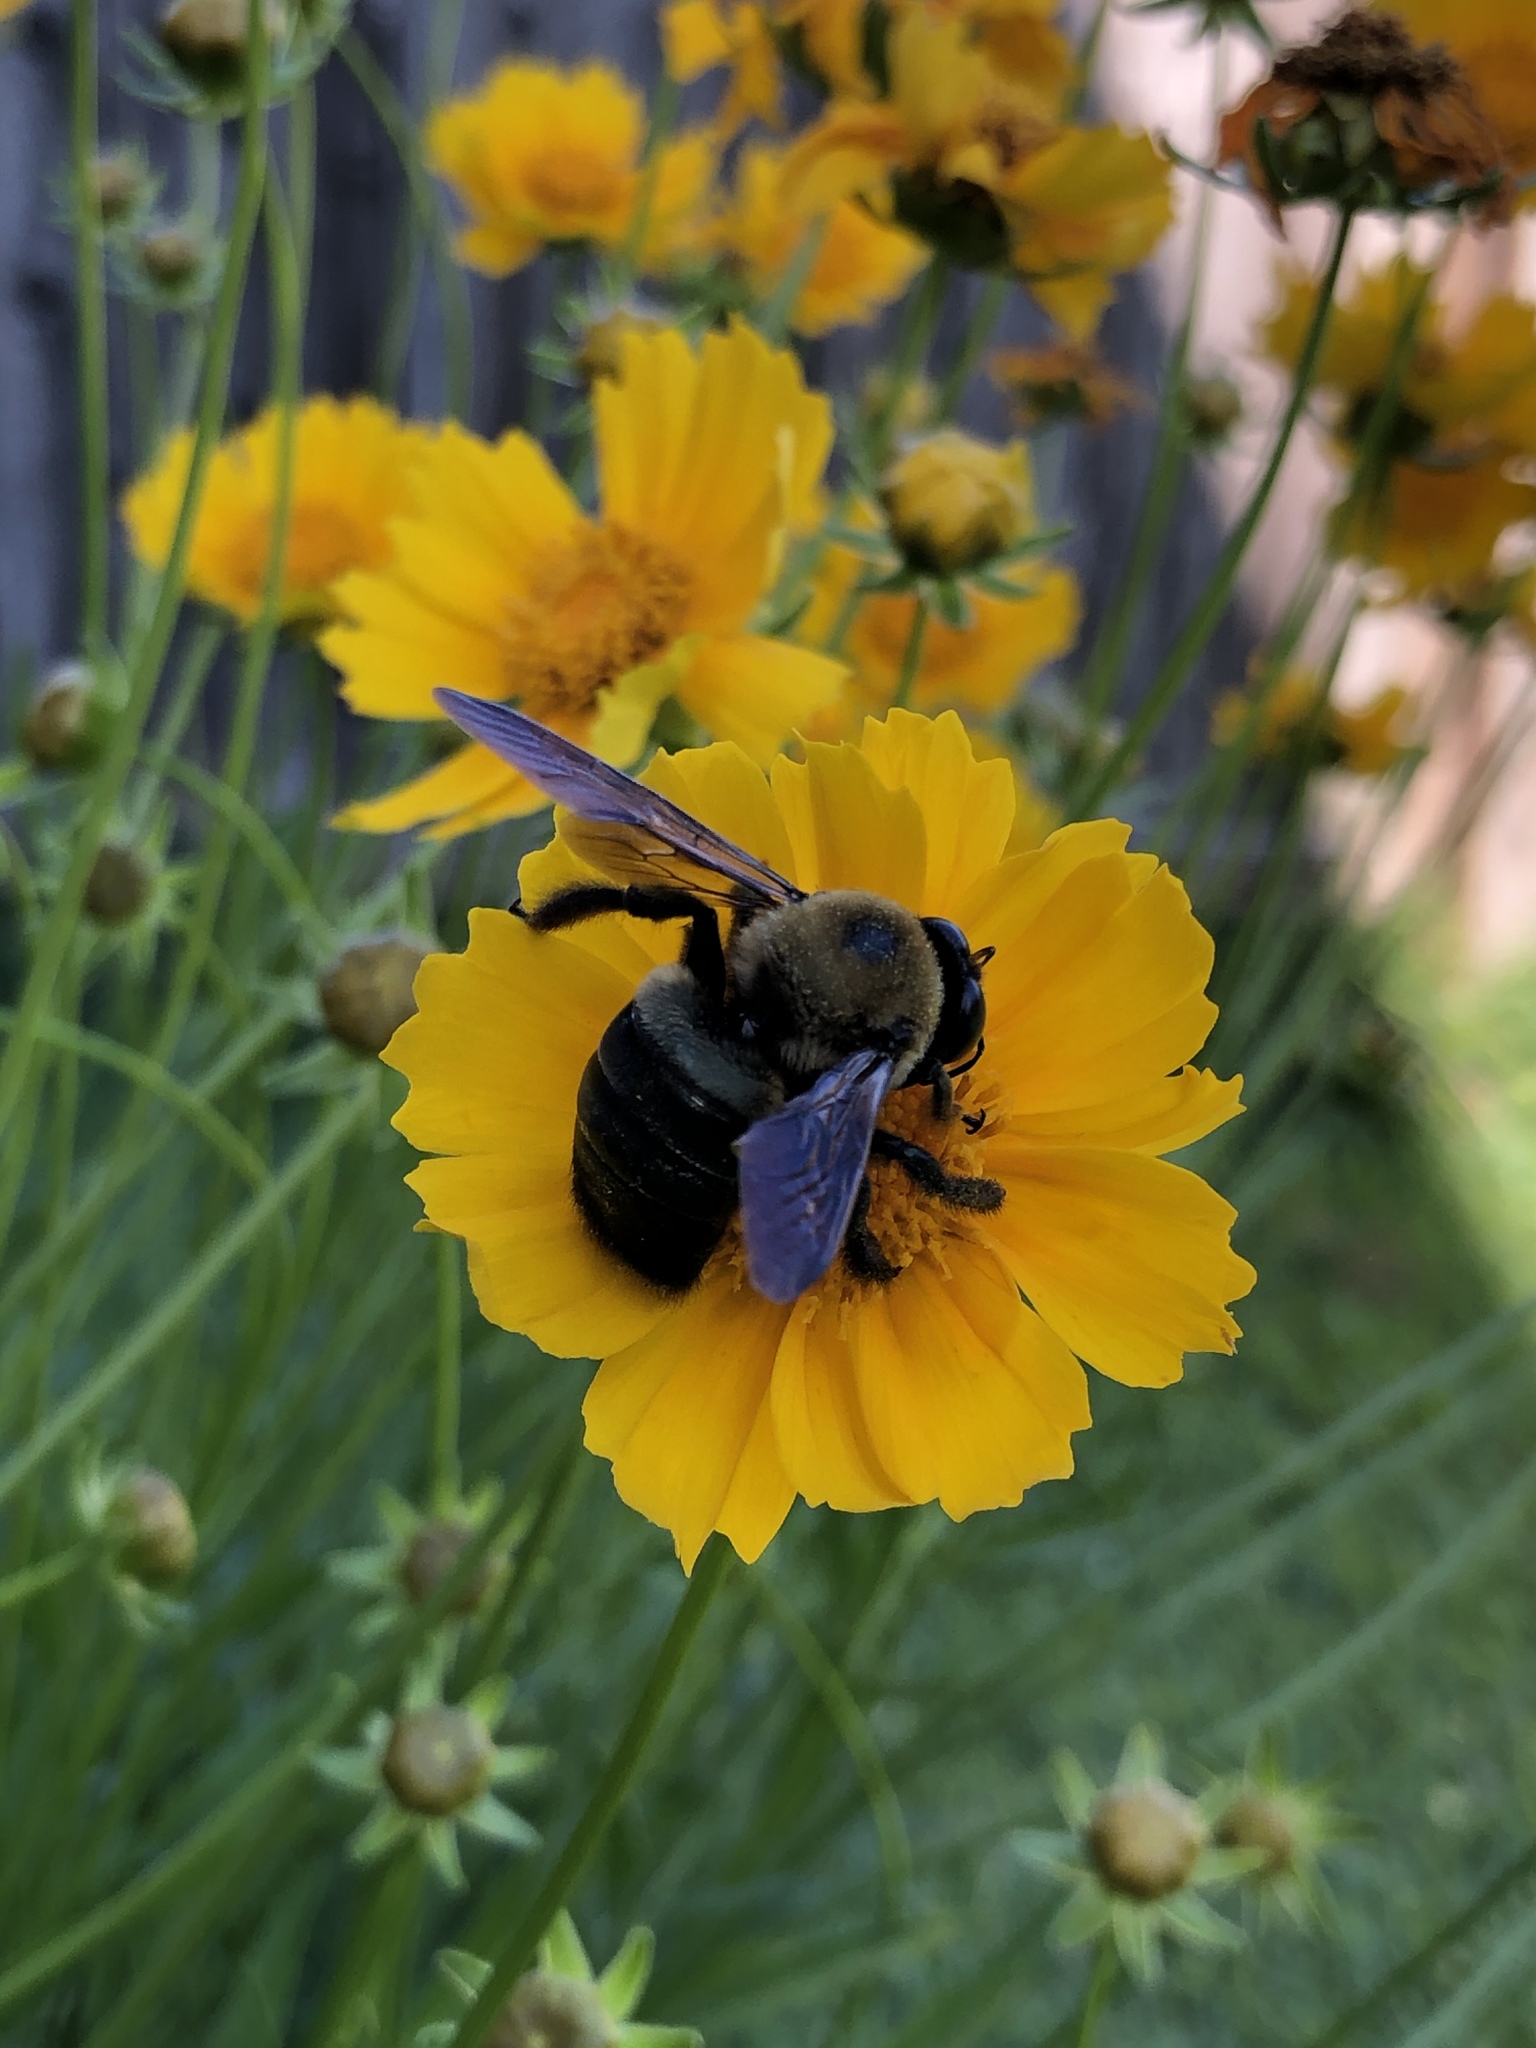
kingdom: Animalia
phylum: Arthropoda
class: Insecta
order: Hymenoptera
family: Apidae
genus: Xylocopa
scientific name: Xylocopa virginica
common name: Carpenter bee
